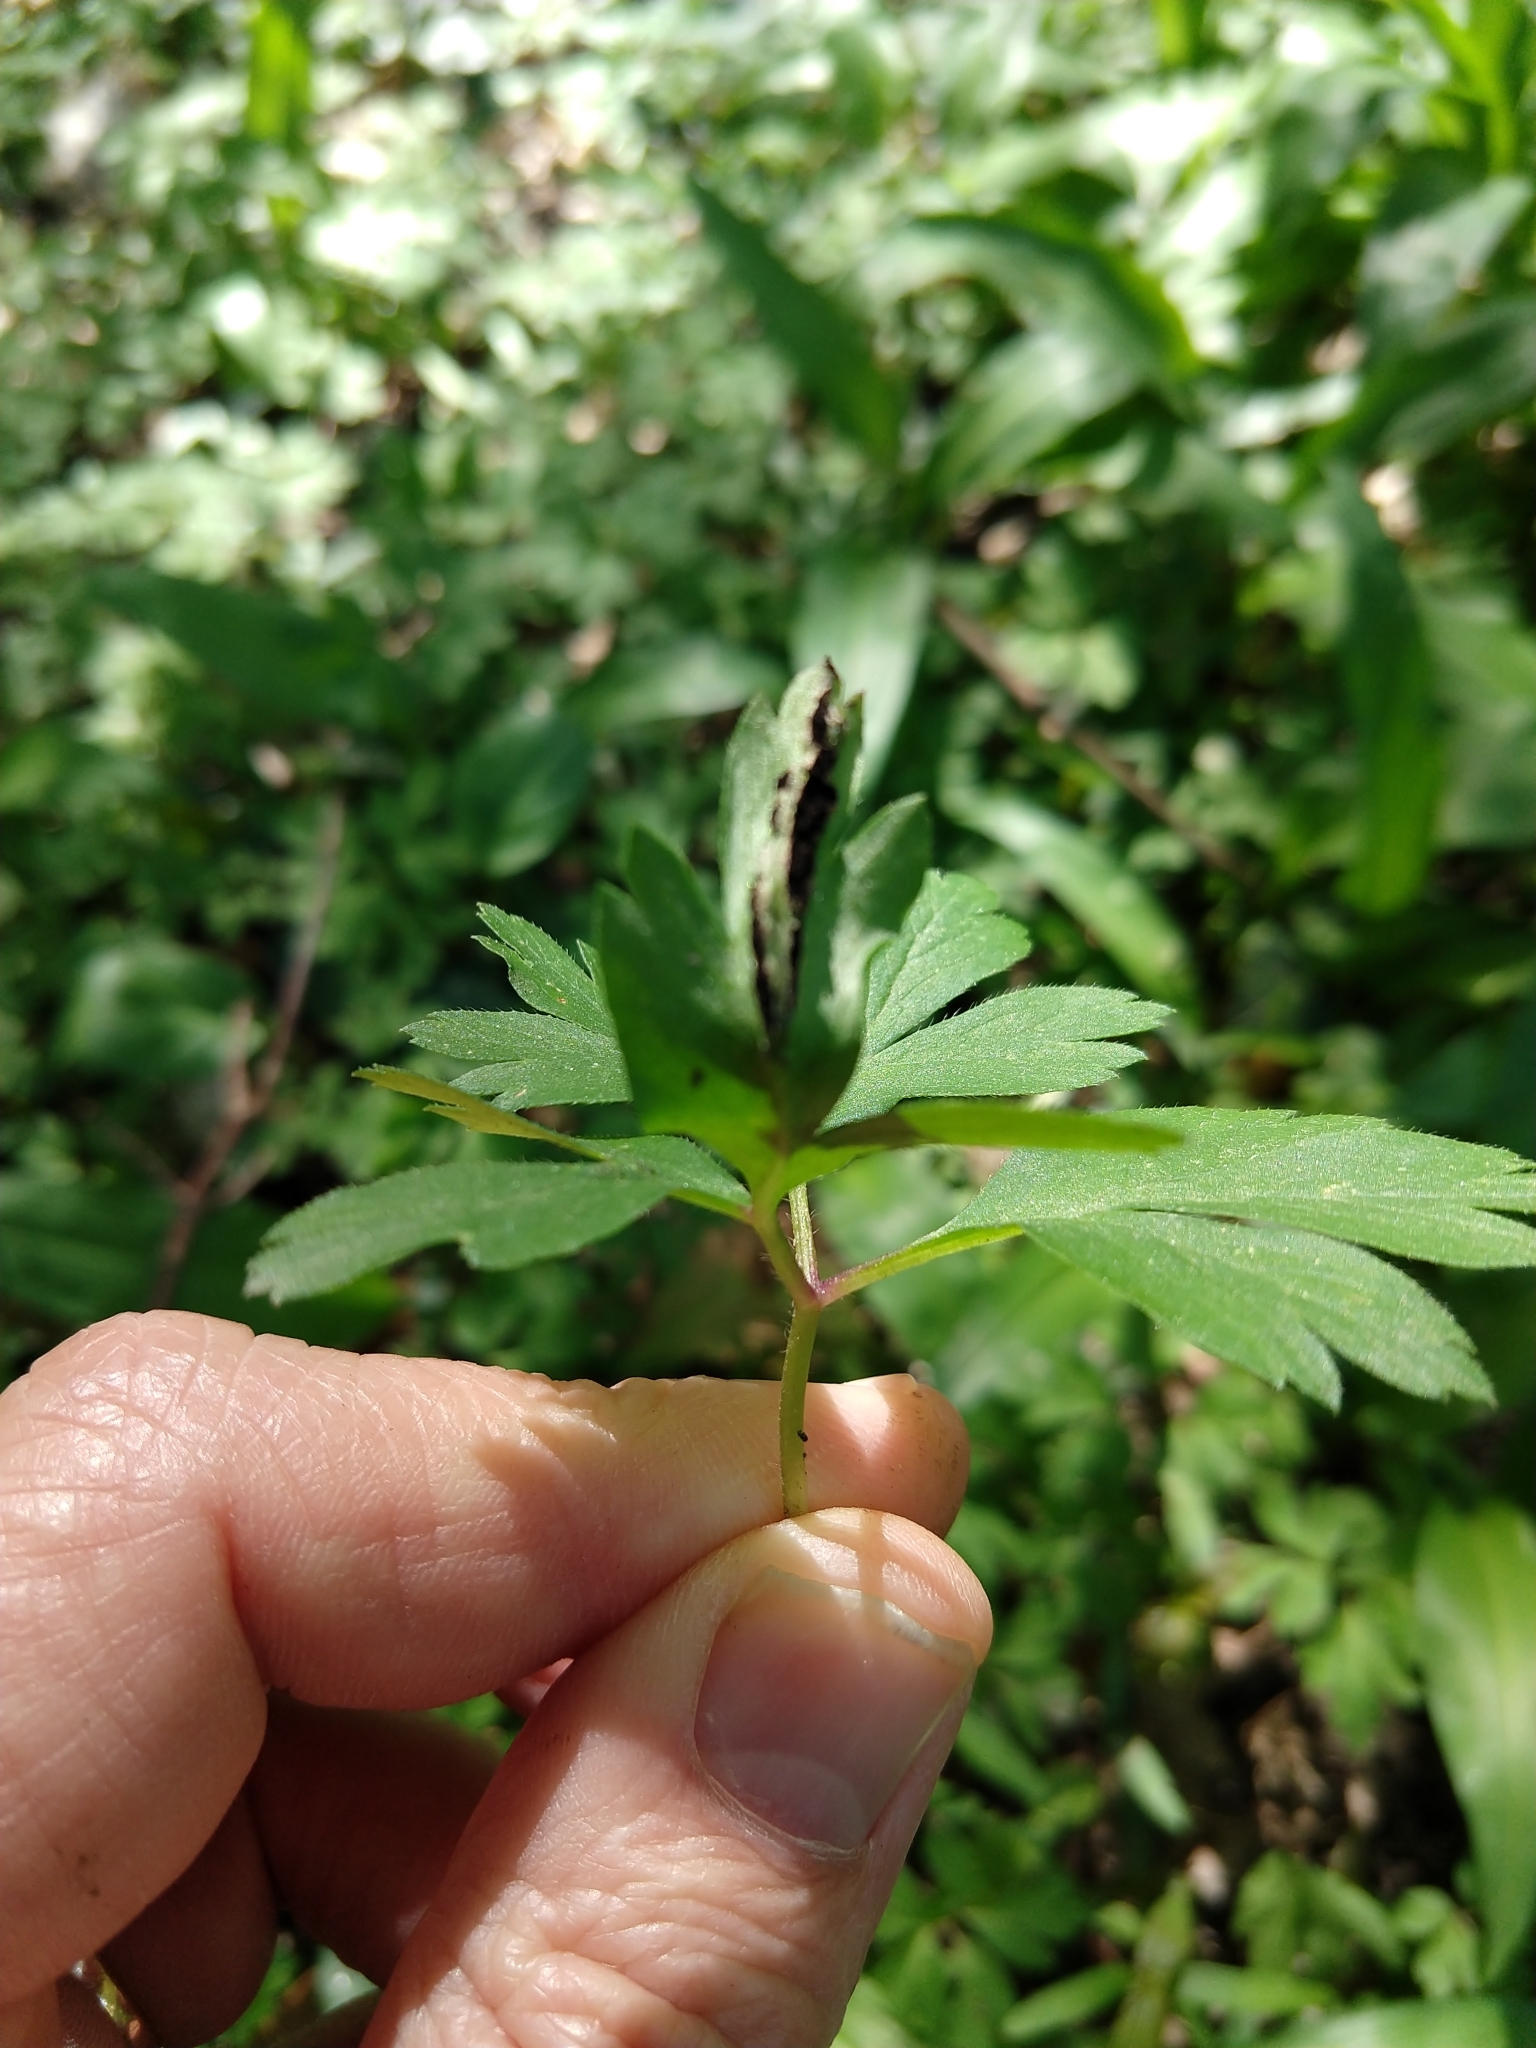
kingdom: Fungi
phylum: Basidiomycota
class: Ustilaginomycetes
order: Urocystidales
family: Urocystidaceae
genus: Urocystis
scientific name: Urocystis anemones
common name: Anemone smut
